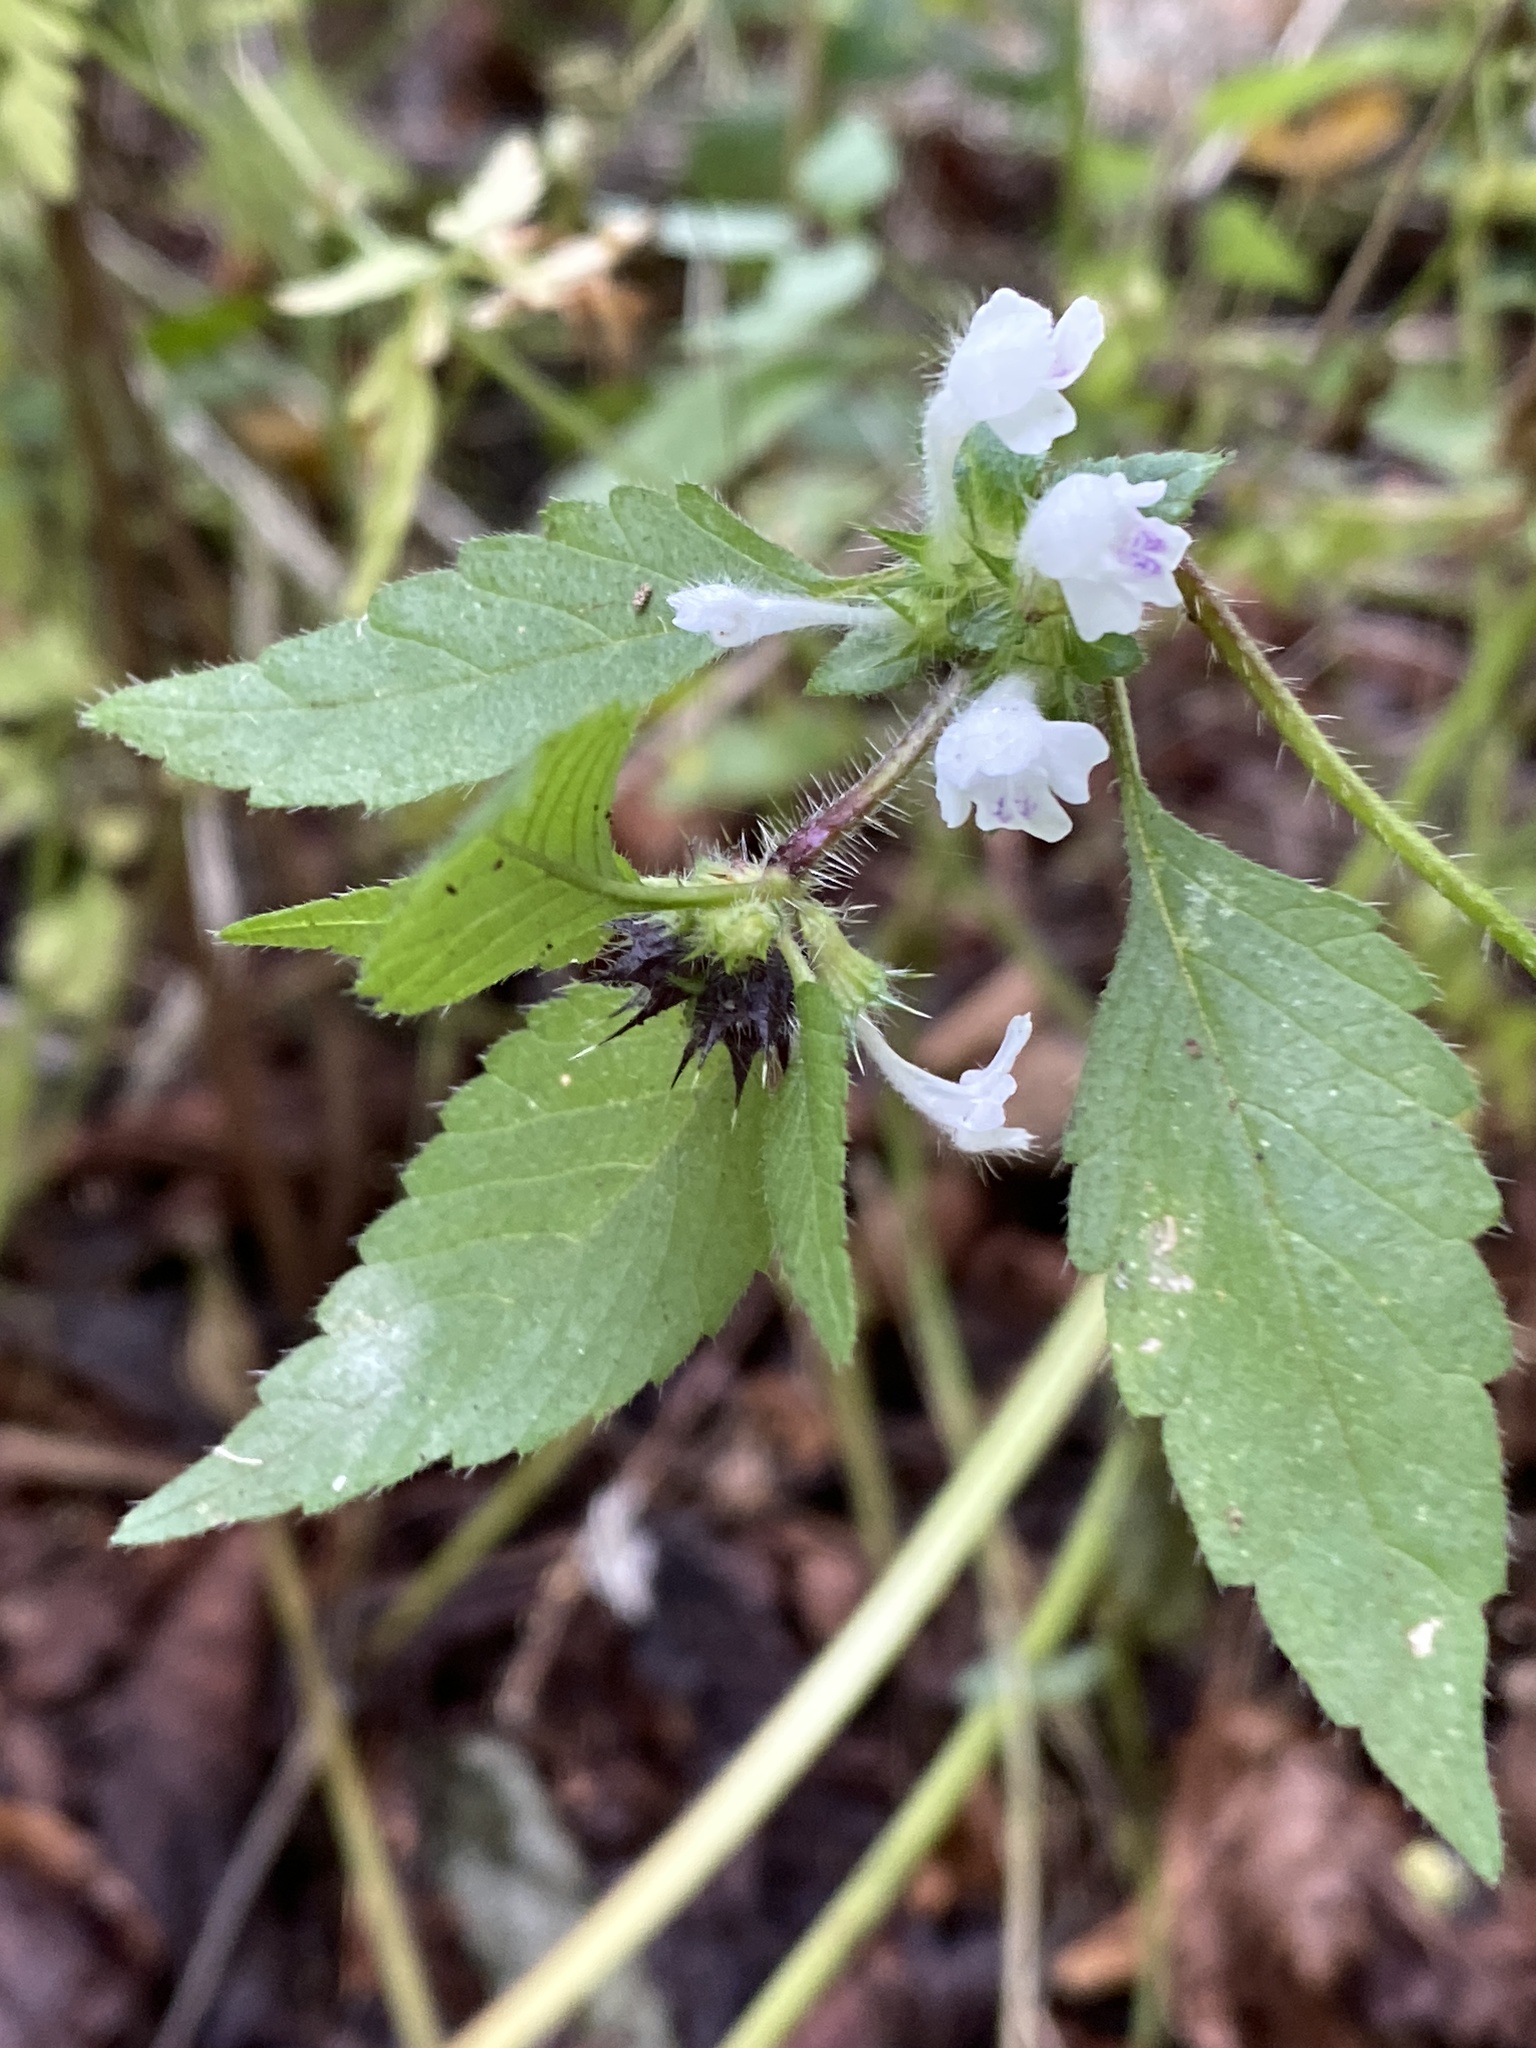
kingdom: Plantae
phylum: Tracheophyta
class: Magnoliopsida
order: Lamiales
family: Lamiaceae
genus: Galeopsis
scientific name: Galeopsis tetrahit
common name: Common hemp-nettle
